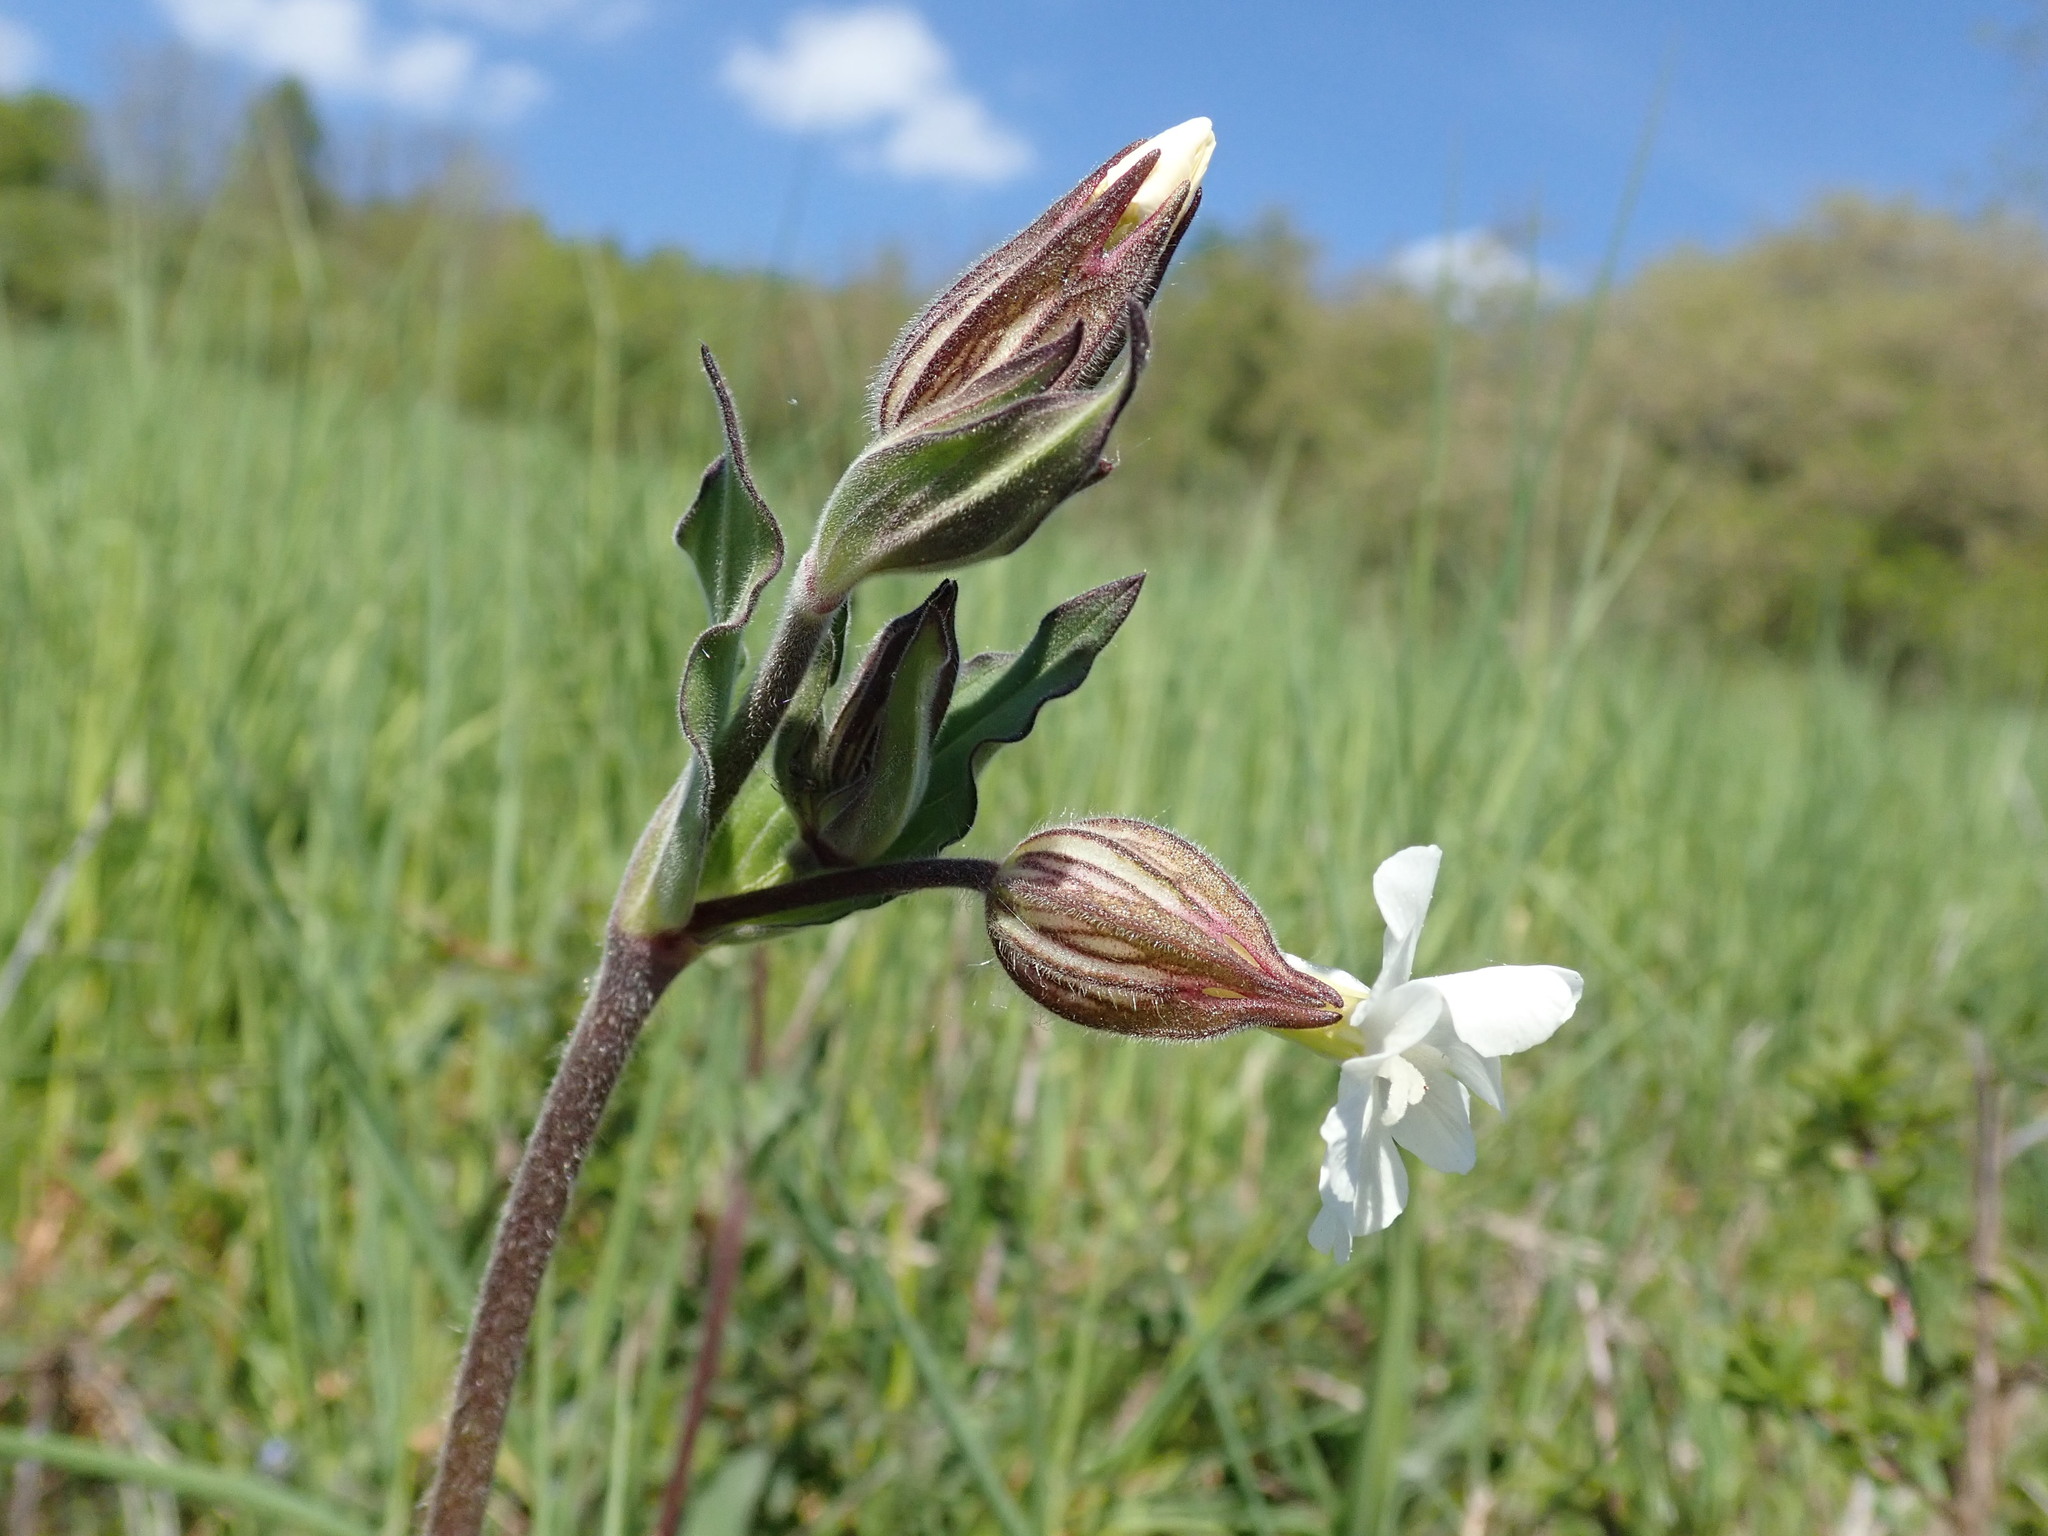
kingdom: Plantae
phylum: Tracheophyta
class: Magnoliopsida
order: Caryophyllales
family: Caryophyllaceae
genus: Silene
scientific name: Silene latifolia
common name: White campion
